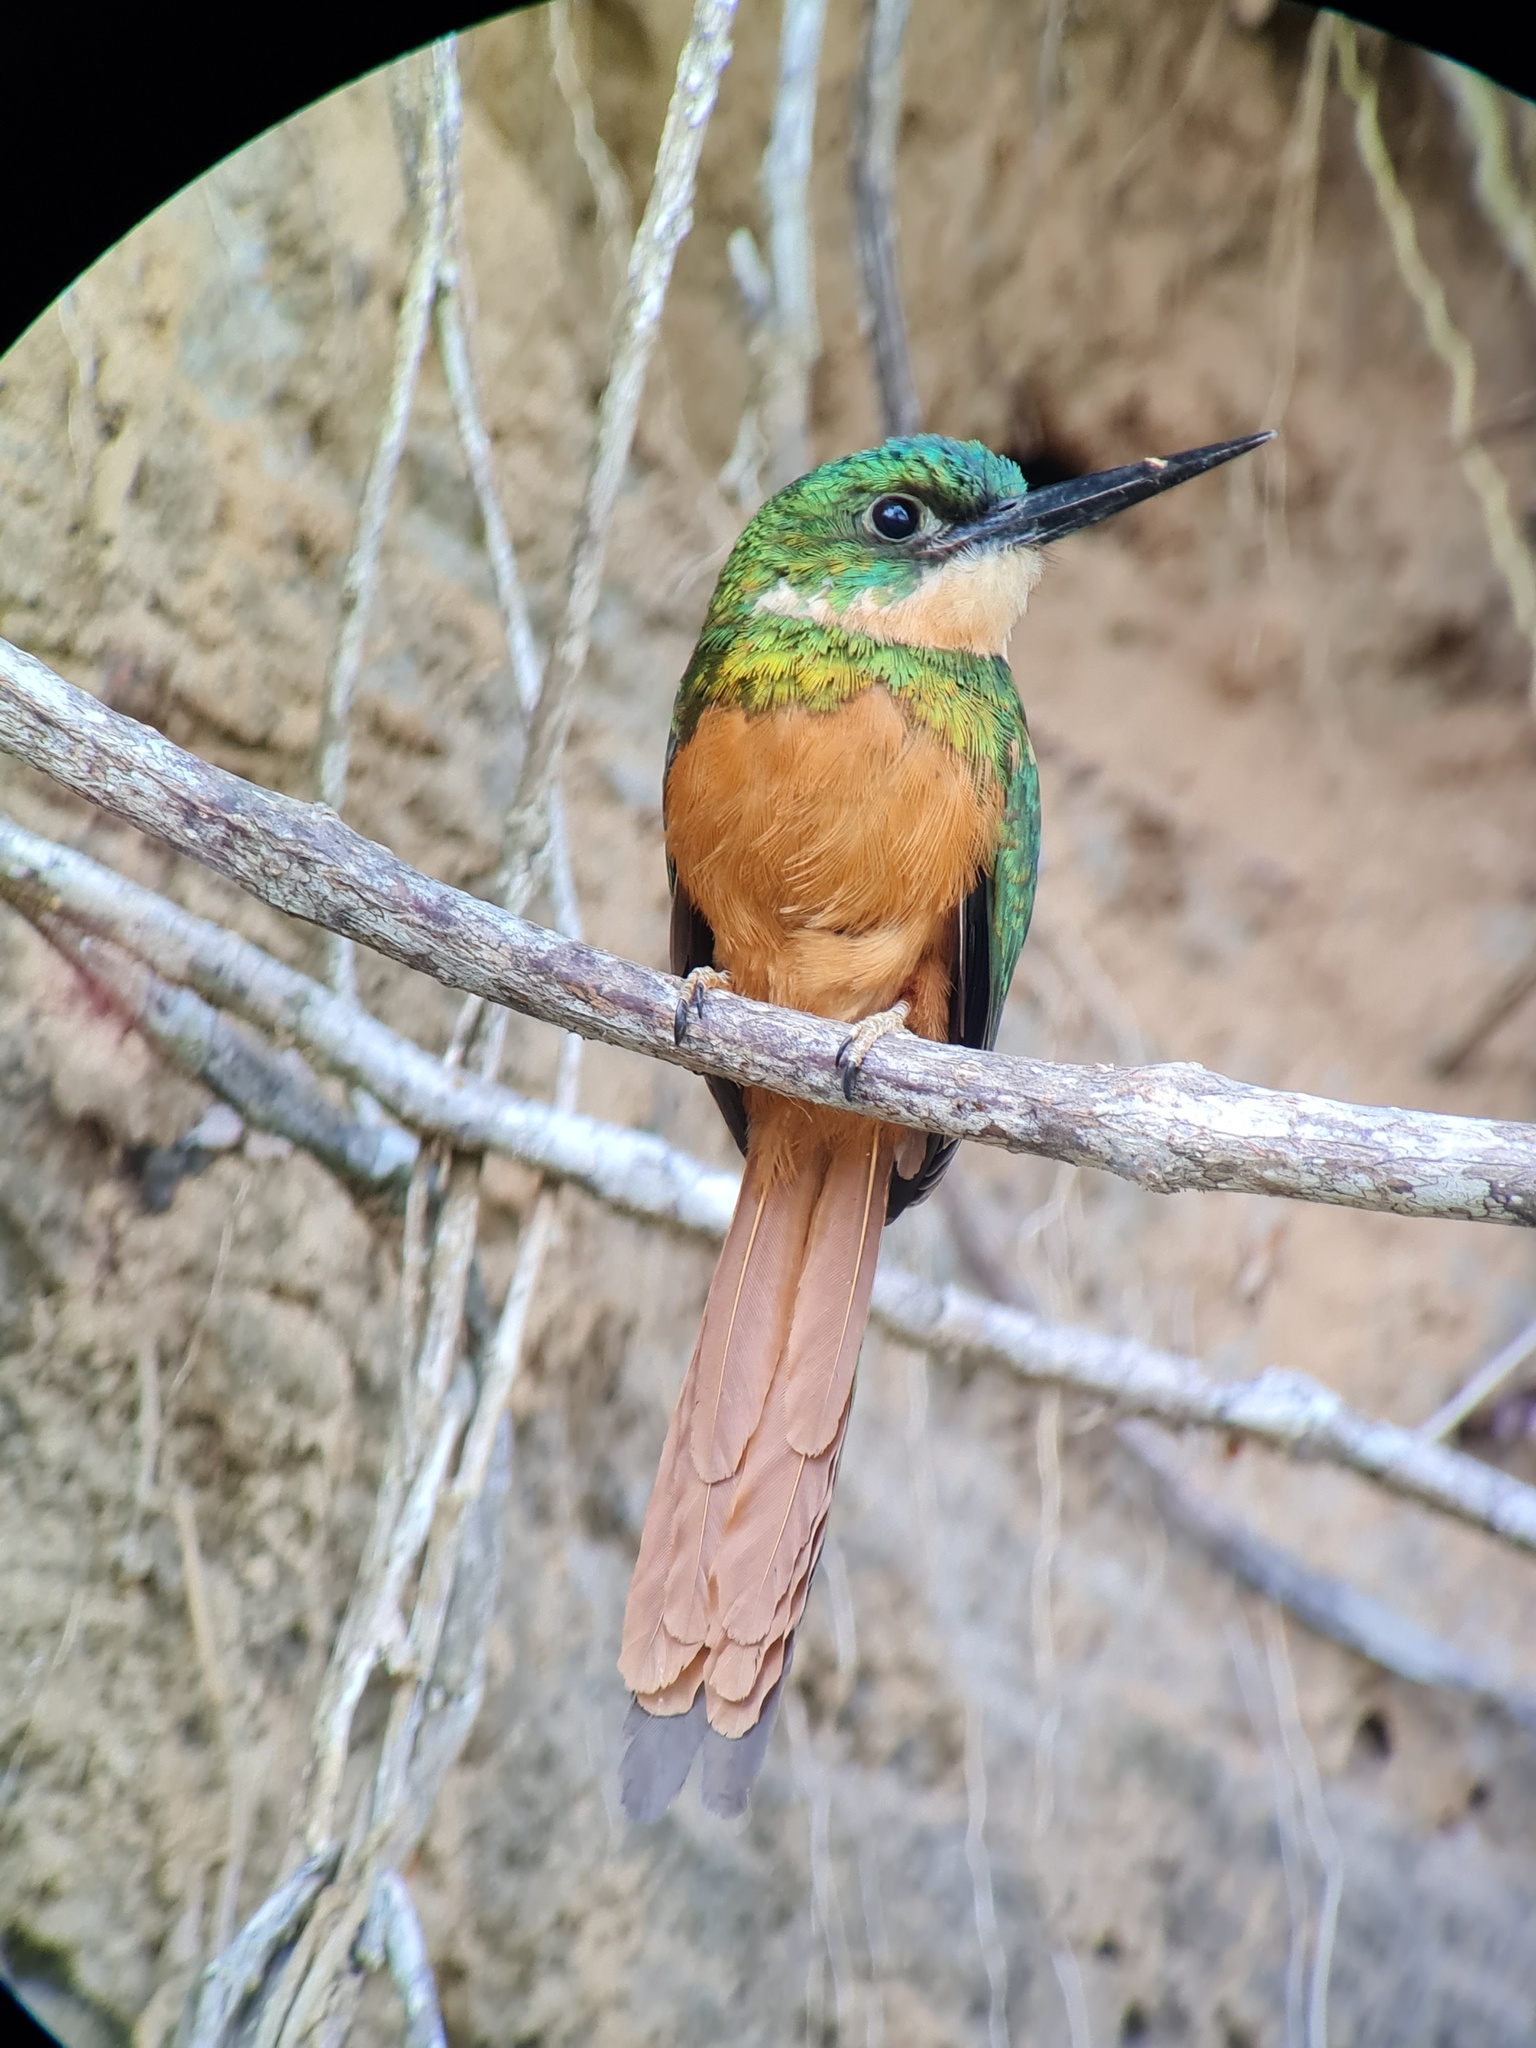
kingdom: Animalia
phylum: Chordata
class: Aves
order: Piciformes
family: Galbulidae
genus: Galbula
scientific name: Galbula ruficauda
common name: Rufous-tailed jacamar
